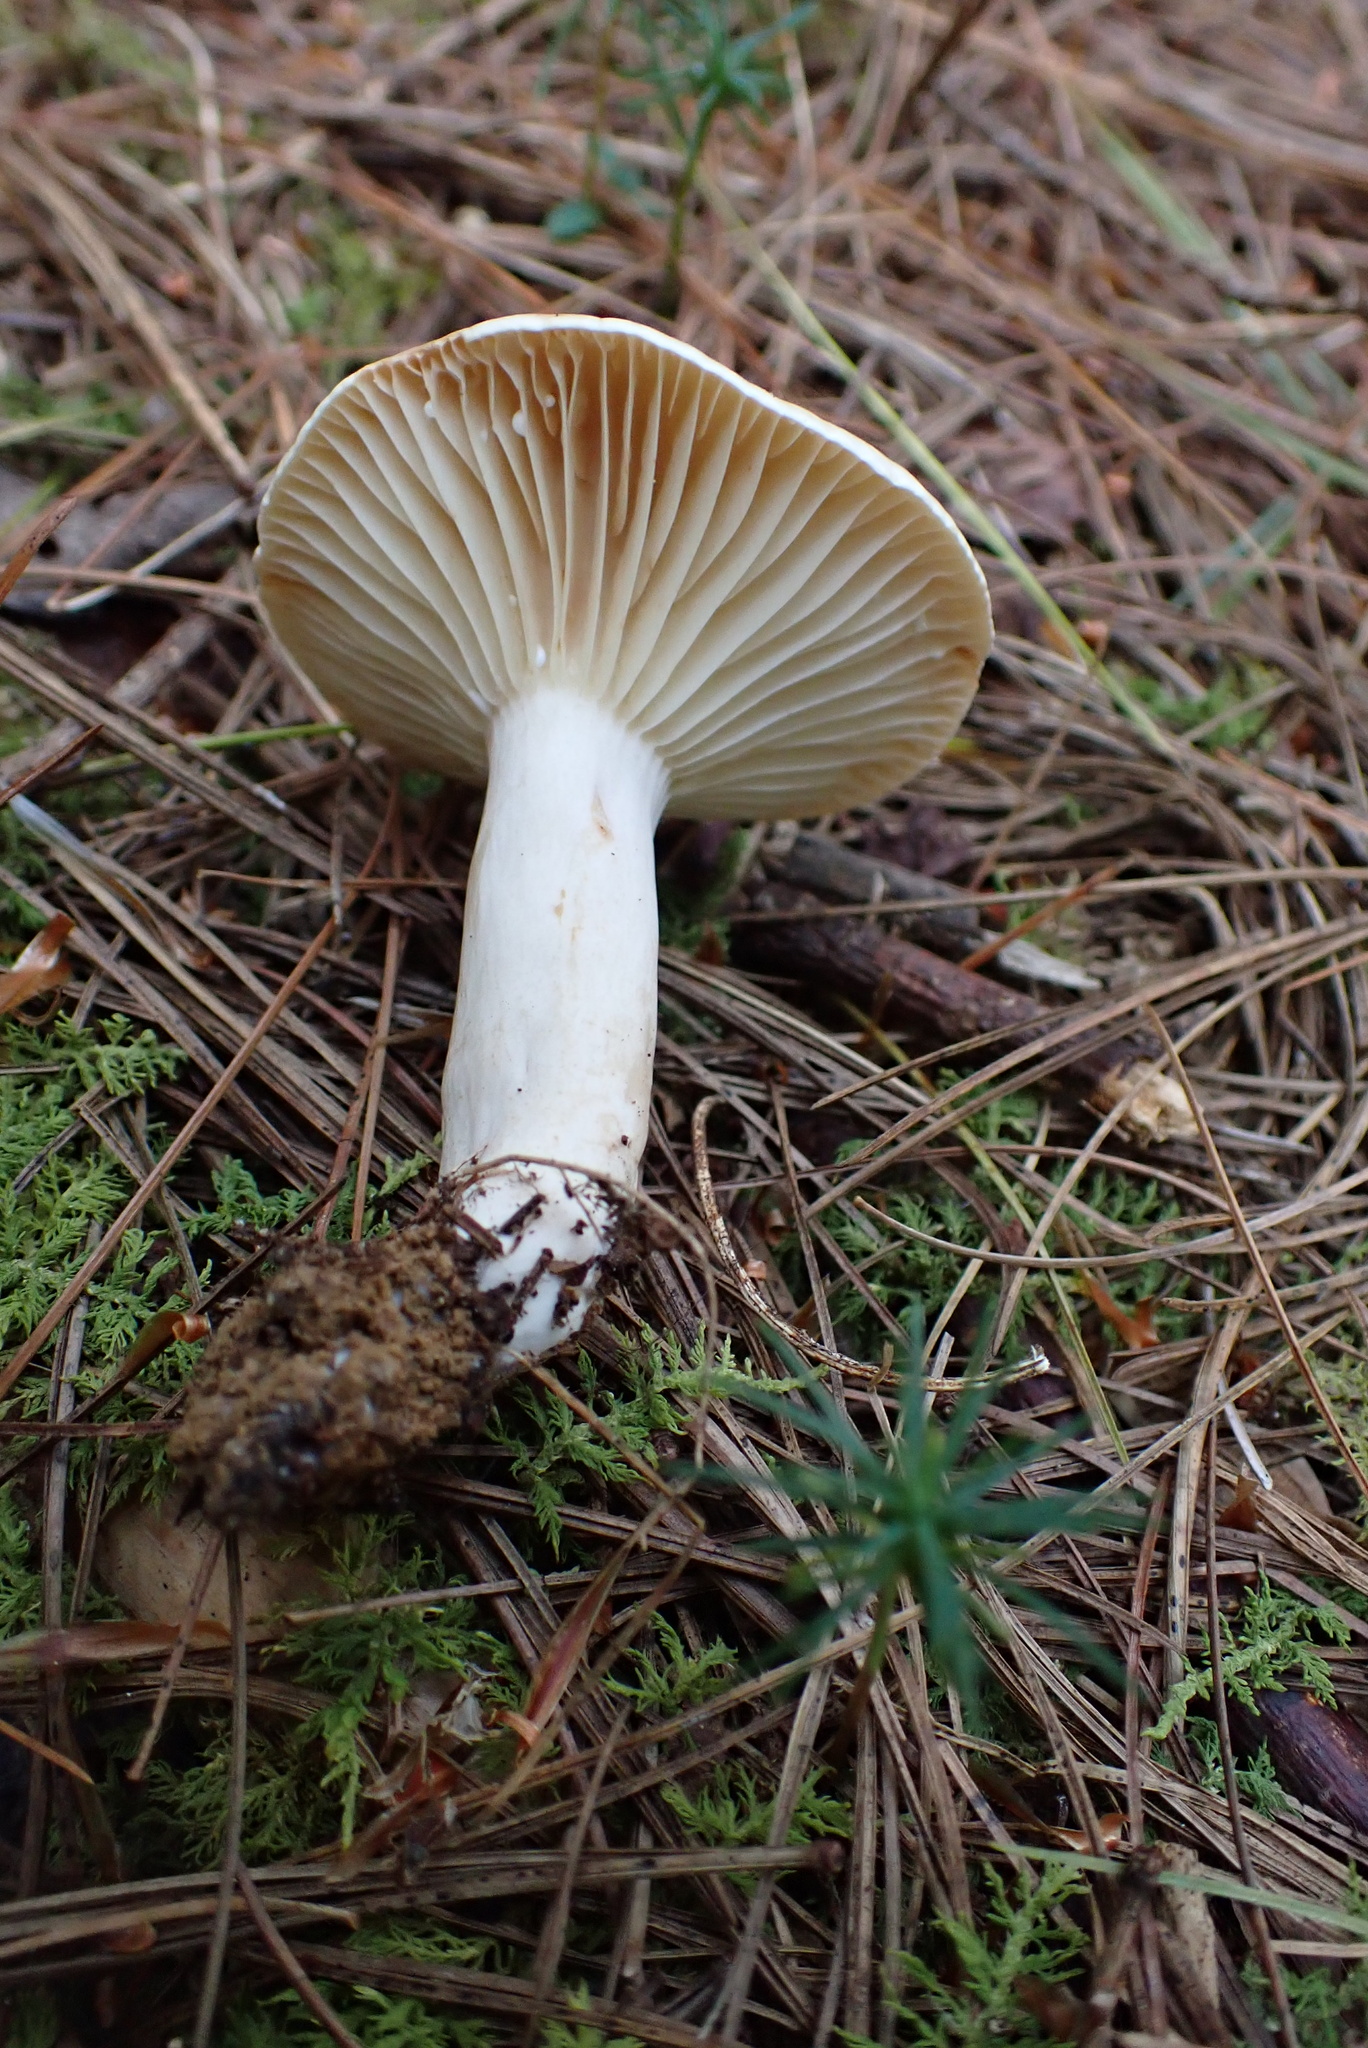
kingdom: Fungi
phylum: Basidiomycota
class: Agaricomycetes
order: Russulales
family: Russulaceae
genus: Lactarius
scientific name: Lactarius subvernalis
